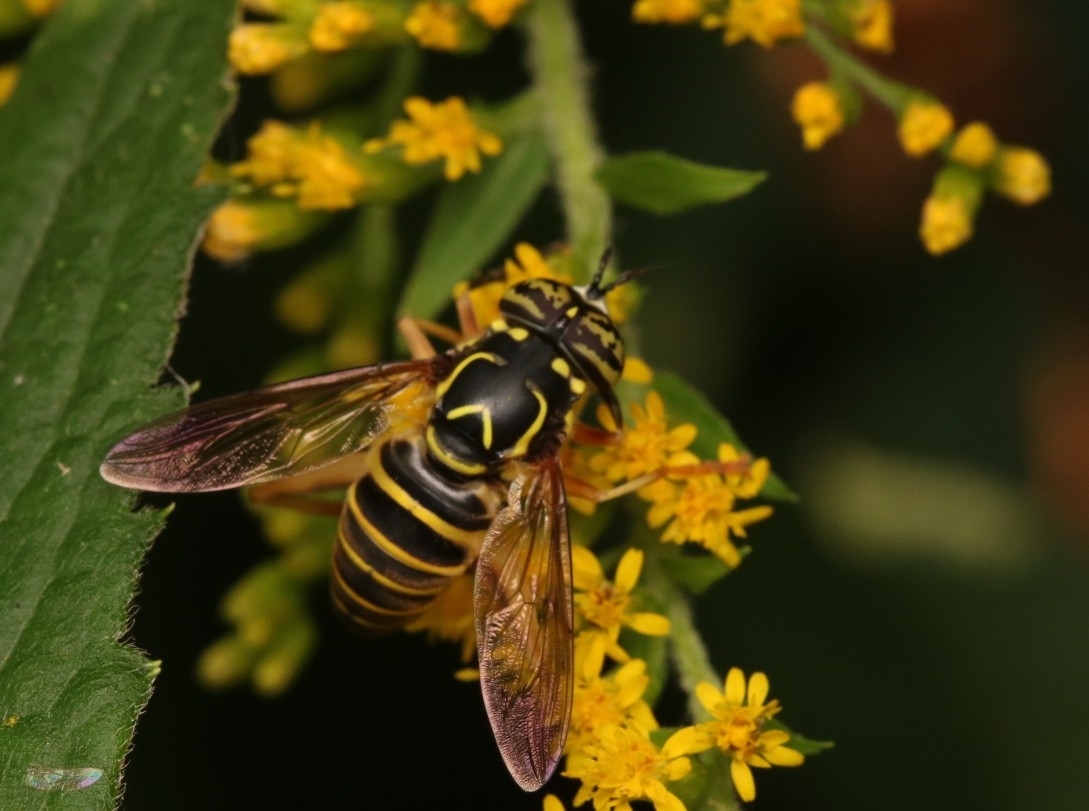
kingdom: Animalia
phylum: Arthropoda
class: Insecta
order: Diptera
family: Syrphidae
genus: Spilomyia
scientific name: Spilomyia longicornis
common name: Eastern hornet fly
